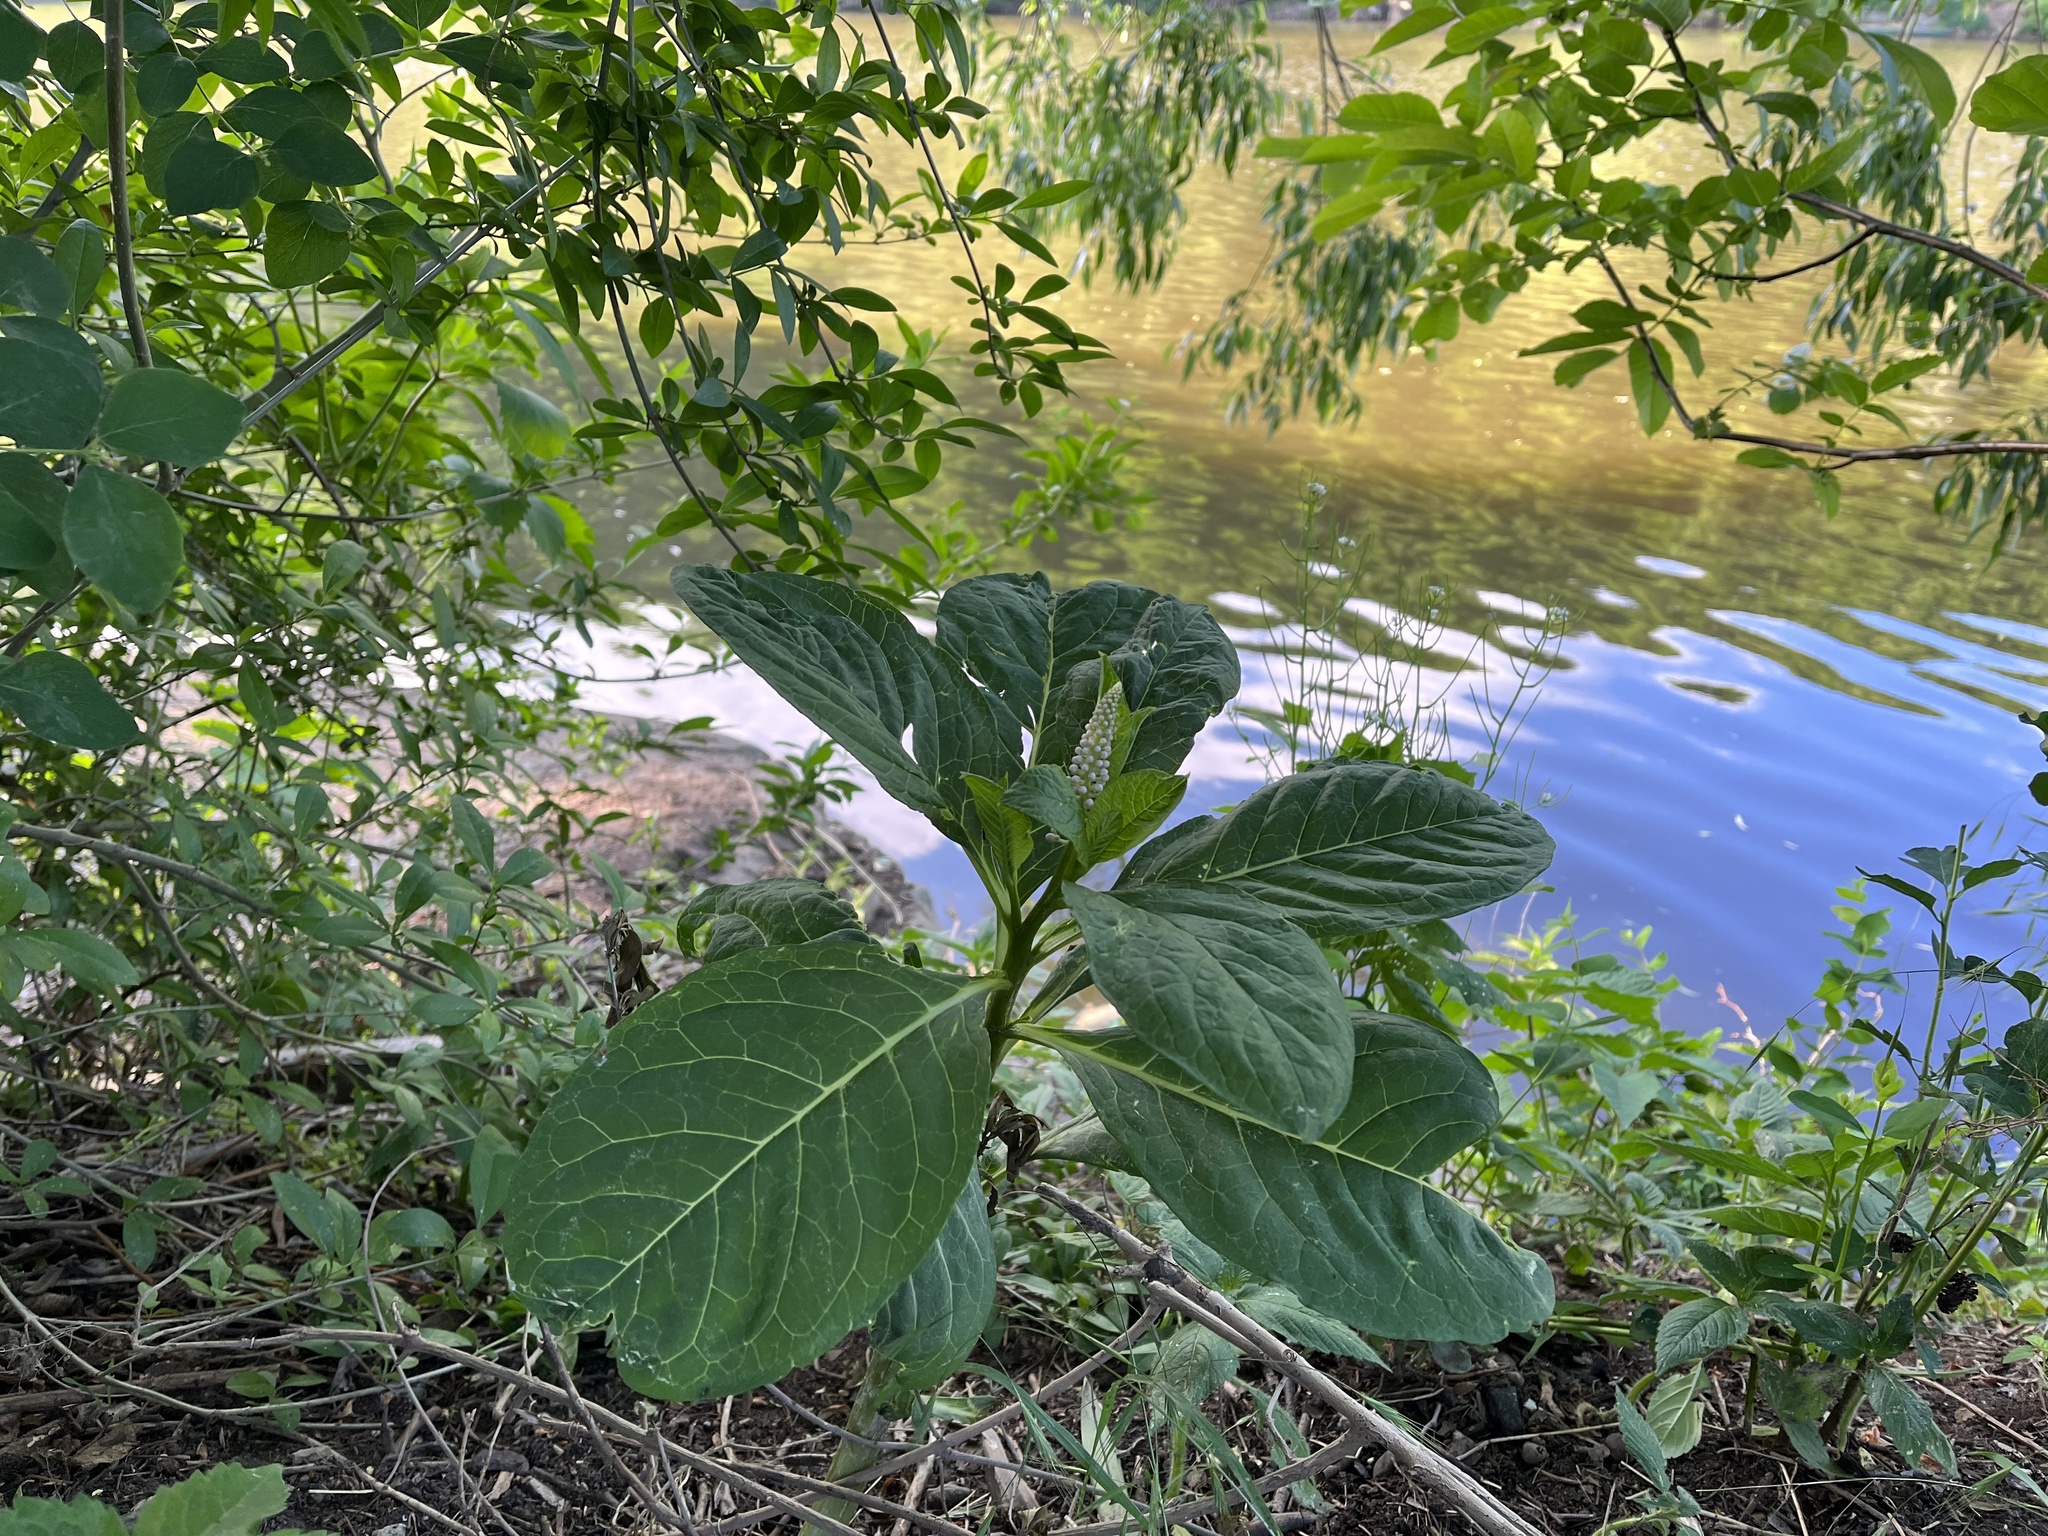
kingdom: Plantae
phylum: Tracheophyta
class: Magnoliopsida
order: Caryophyllales
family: Phytolaccaceae
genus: Phytolacca
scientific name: Phytolacca acinosa
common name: Indian pokeweed
